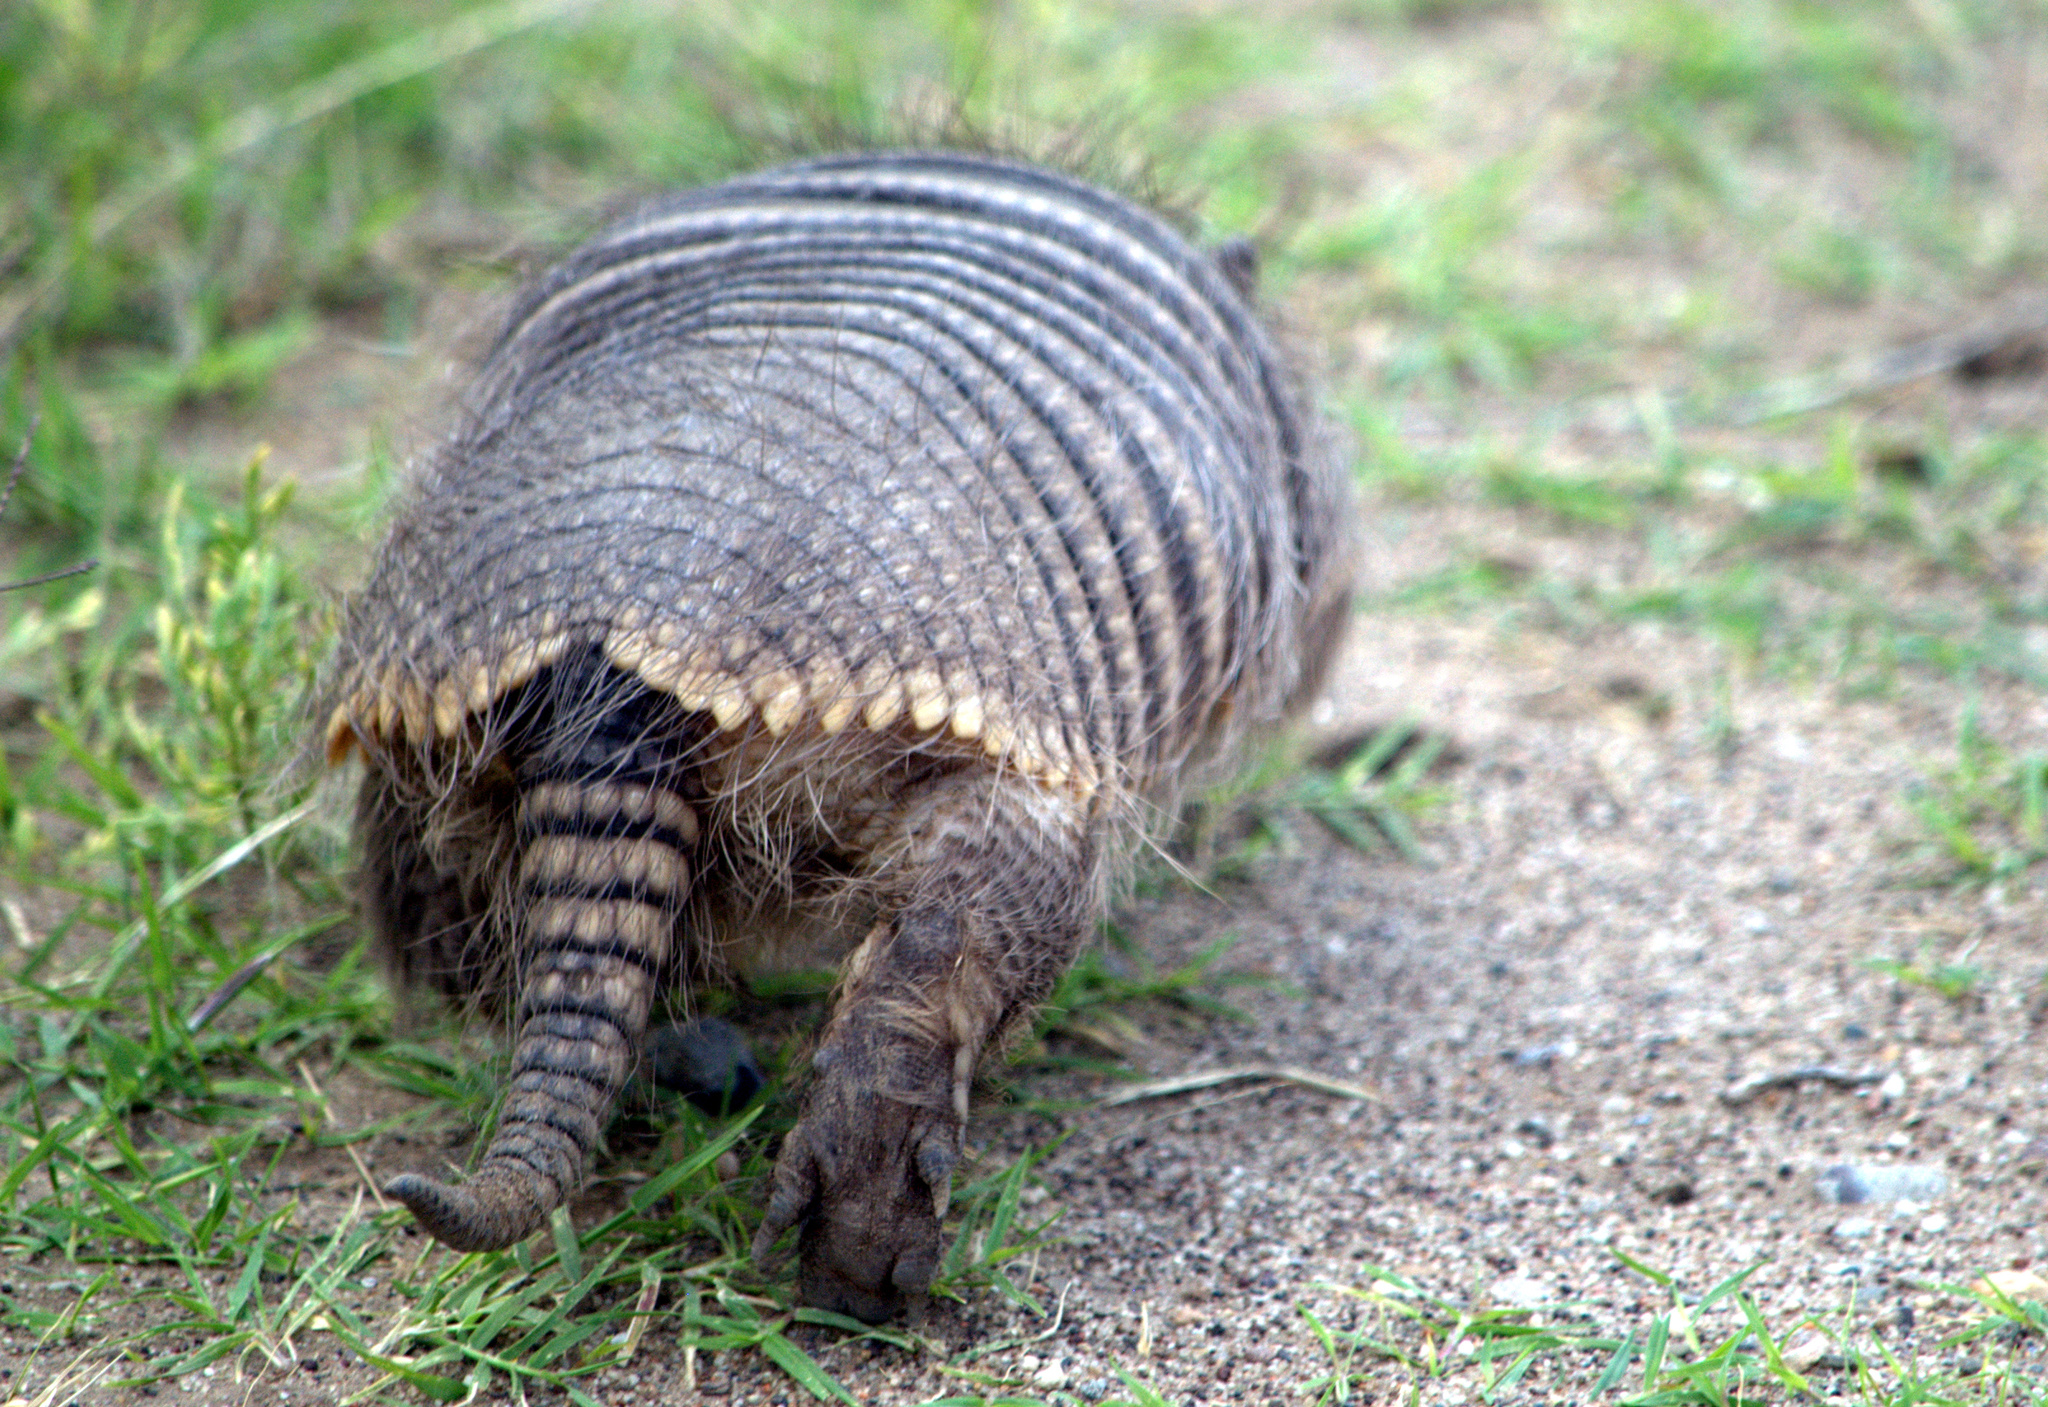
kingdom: Animalia
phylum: Chordata
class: Mammalia
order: Cingulata
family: Dasypodidae
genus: Chaetophractus
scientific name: Chaetophractus villosus
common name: Big hairy armadillo
